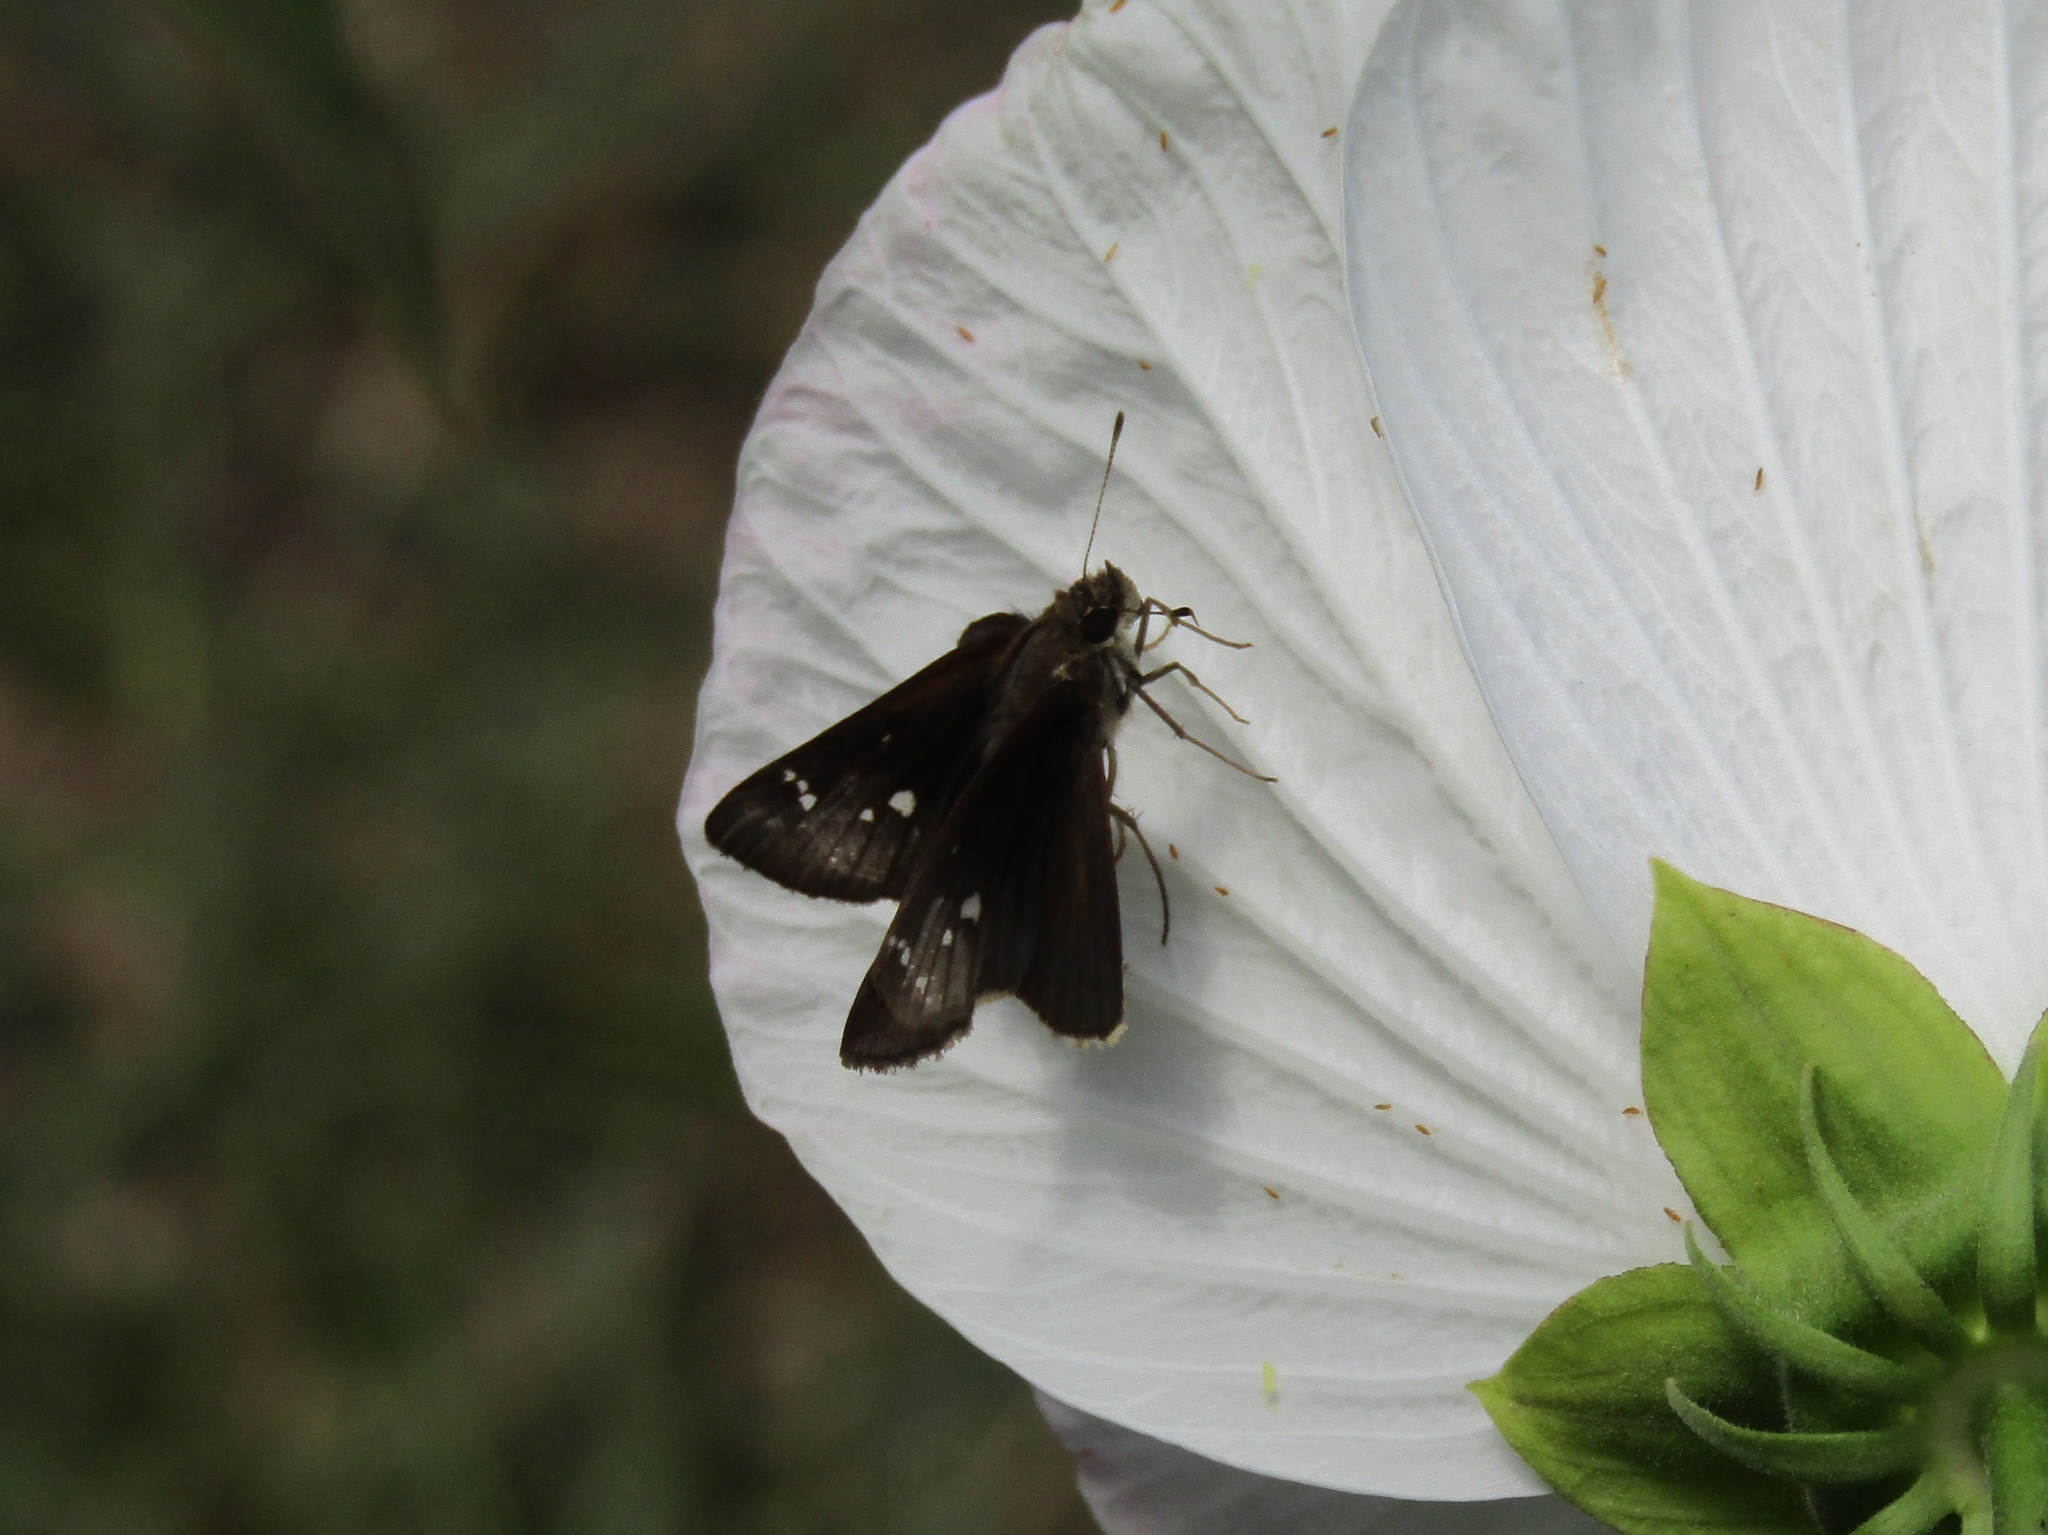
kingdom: Animalia
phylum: Arthropoda
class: Insecta
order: Lepidoptera
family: Hesperiidae
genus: Lerema
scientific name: Lerema accius
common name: Clouded skipper
